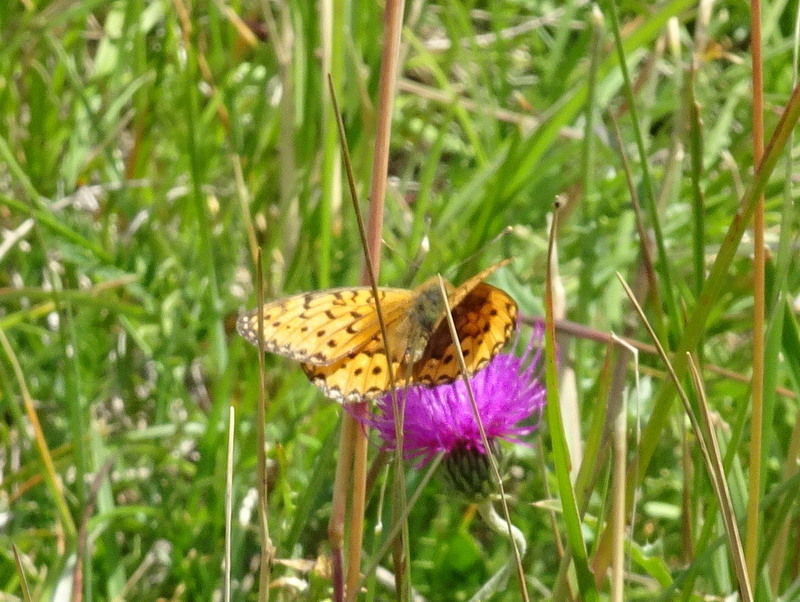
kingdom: Animalia
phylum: Arthropoda
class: Insecta
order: Lepidoptera
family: Nymphalidae
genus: Speyeria
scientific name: Speyeria aglaja
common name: Dark green fritillary
